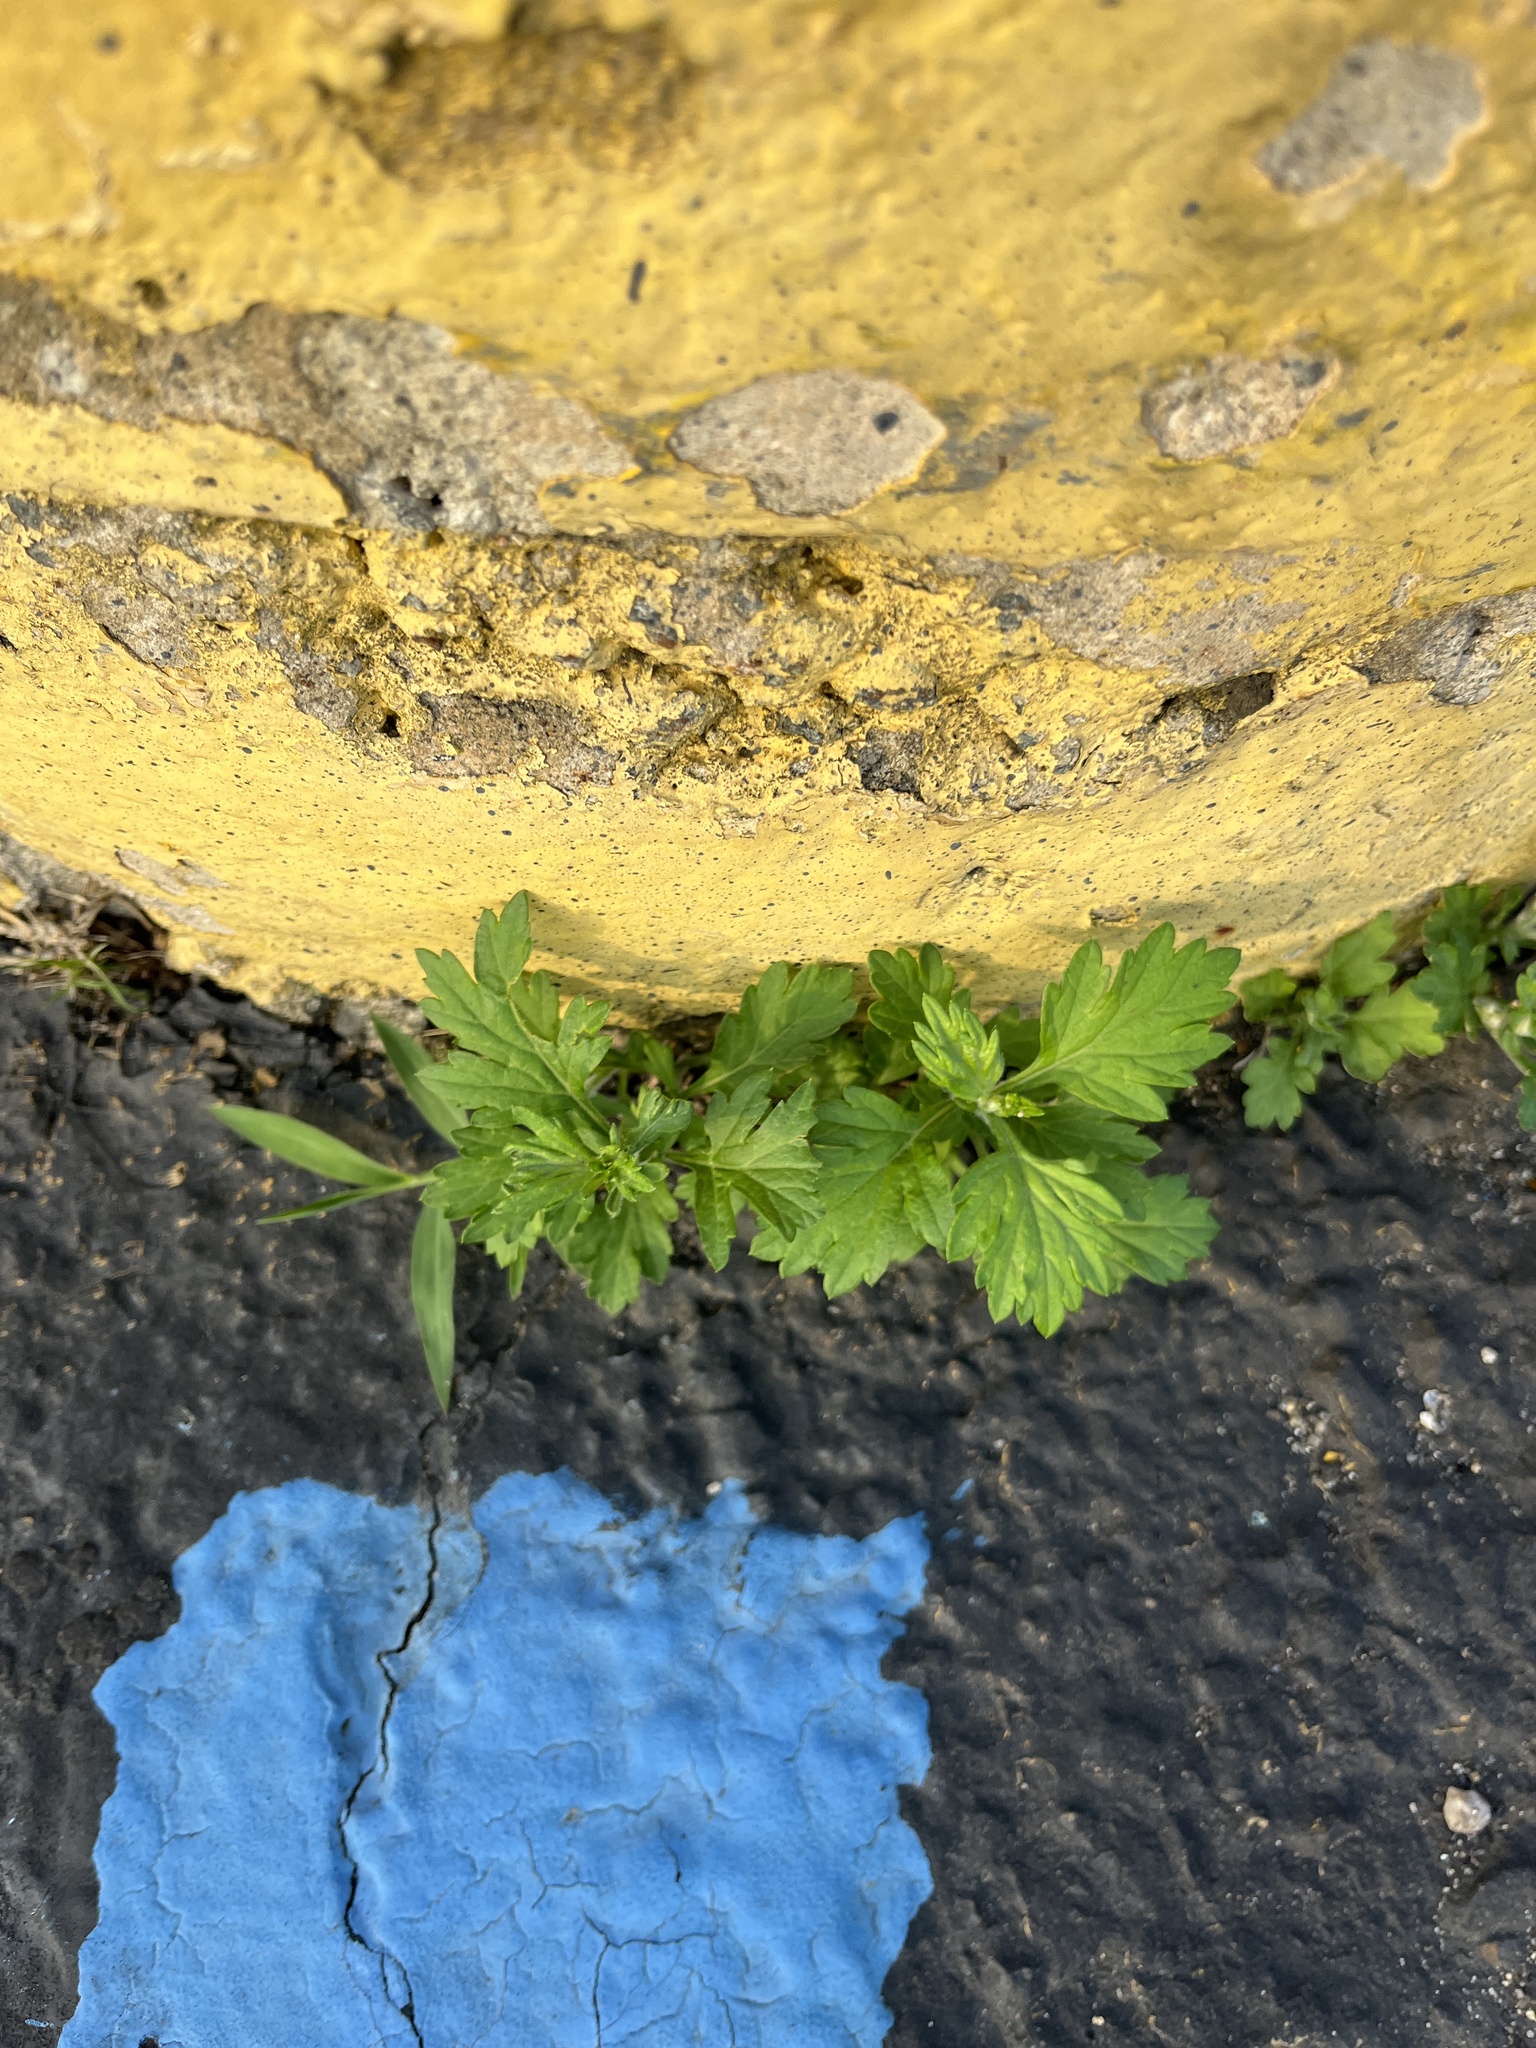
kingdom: Plantae
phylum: Tracheophyta
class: Magnoliopsida
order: Asterales
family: Asteraceae
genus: Artemisia
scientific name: Artemisia vulgaris
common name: Mugwort
